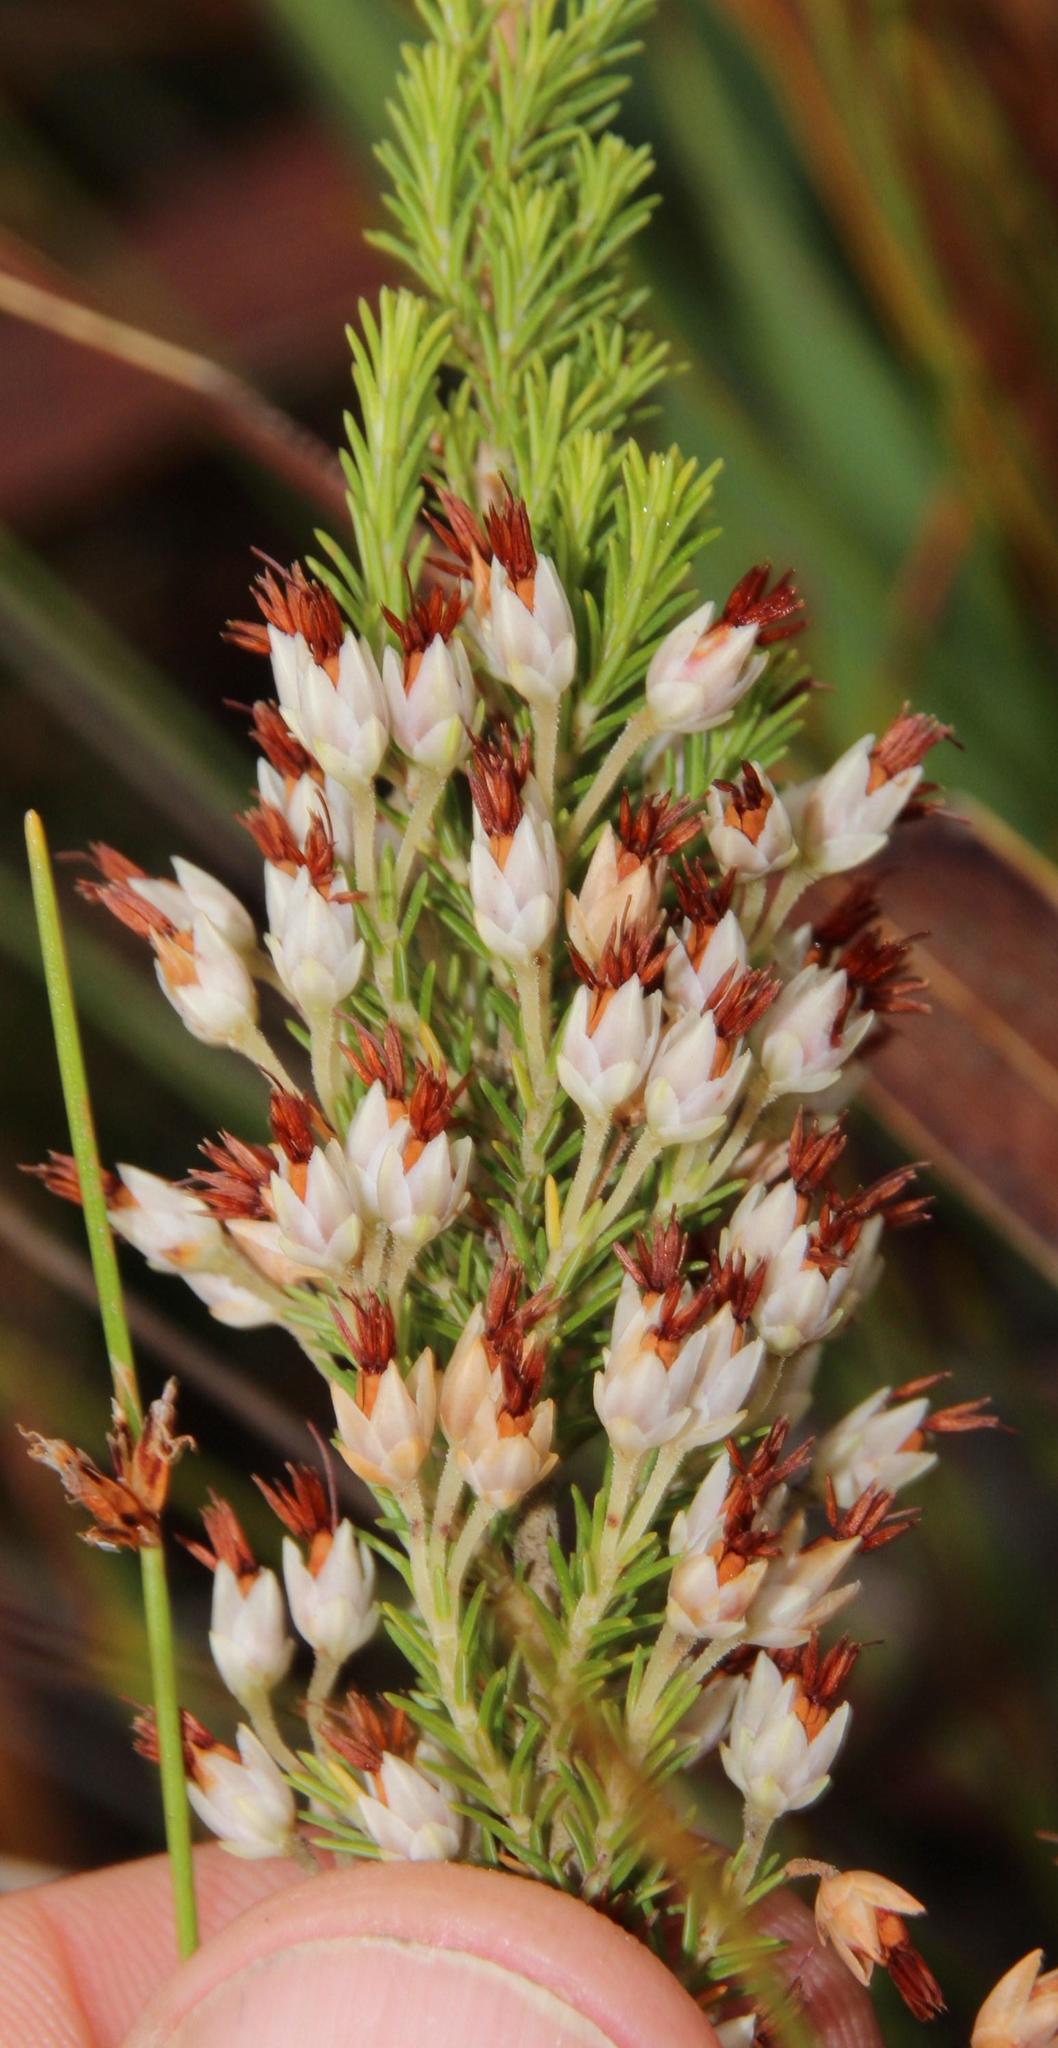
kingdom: Plantae
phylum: Tracheophyta
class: Magnoliopsida
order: Ericales
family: Ericaceae
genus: Erica
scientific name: Erica penicilliformis
